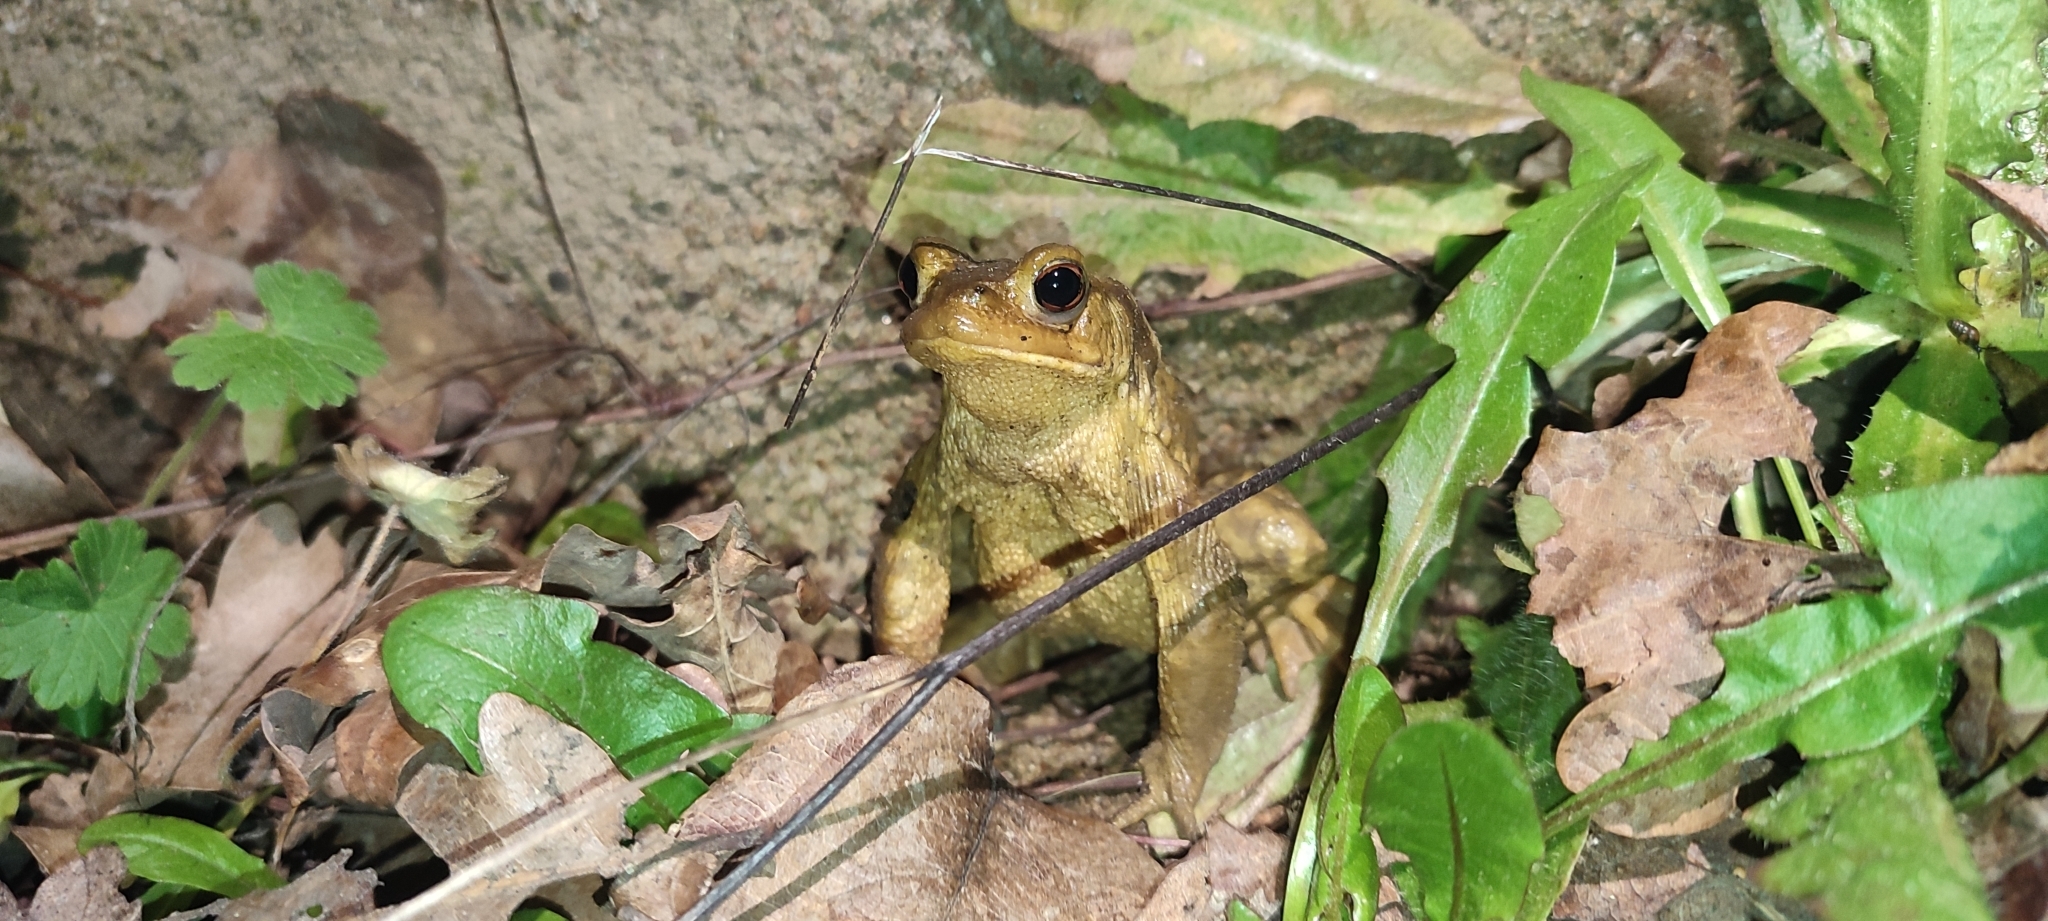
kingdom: Animalia
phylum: Chordata
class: Amphibia
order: Anura
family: Bufonidae
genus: Bufo
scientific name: Bufo spinosus
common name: Western common toad
